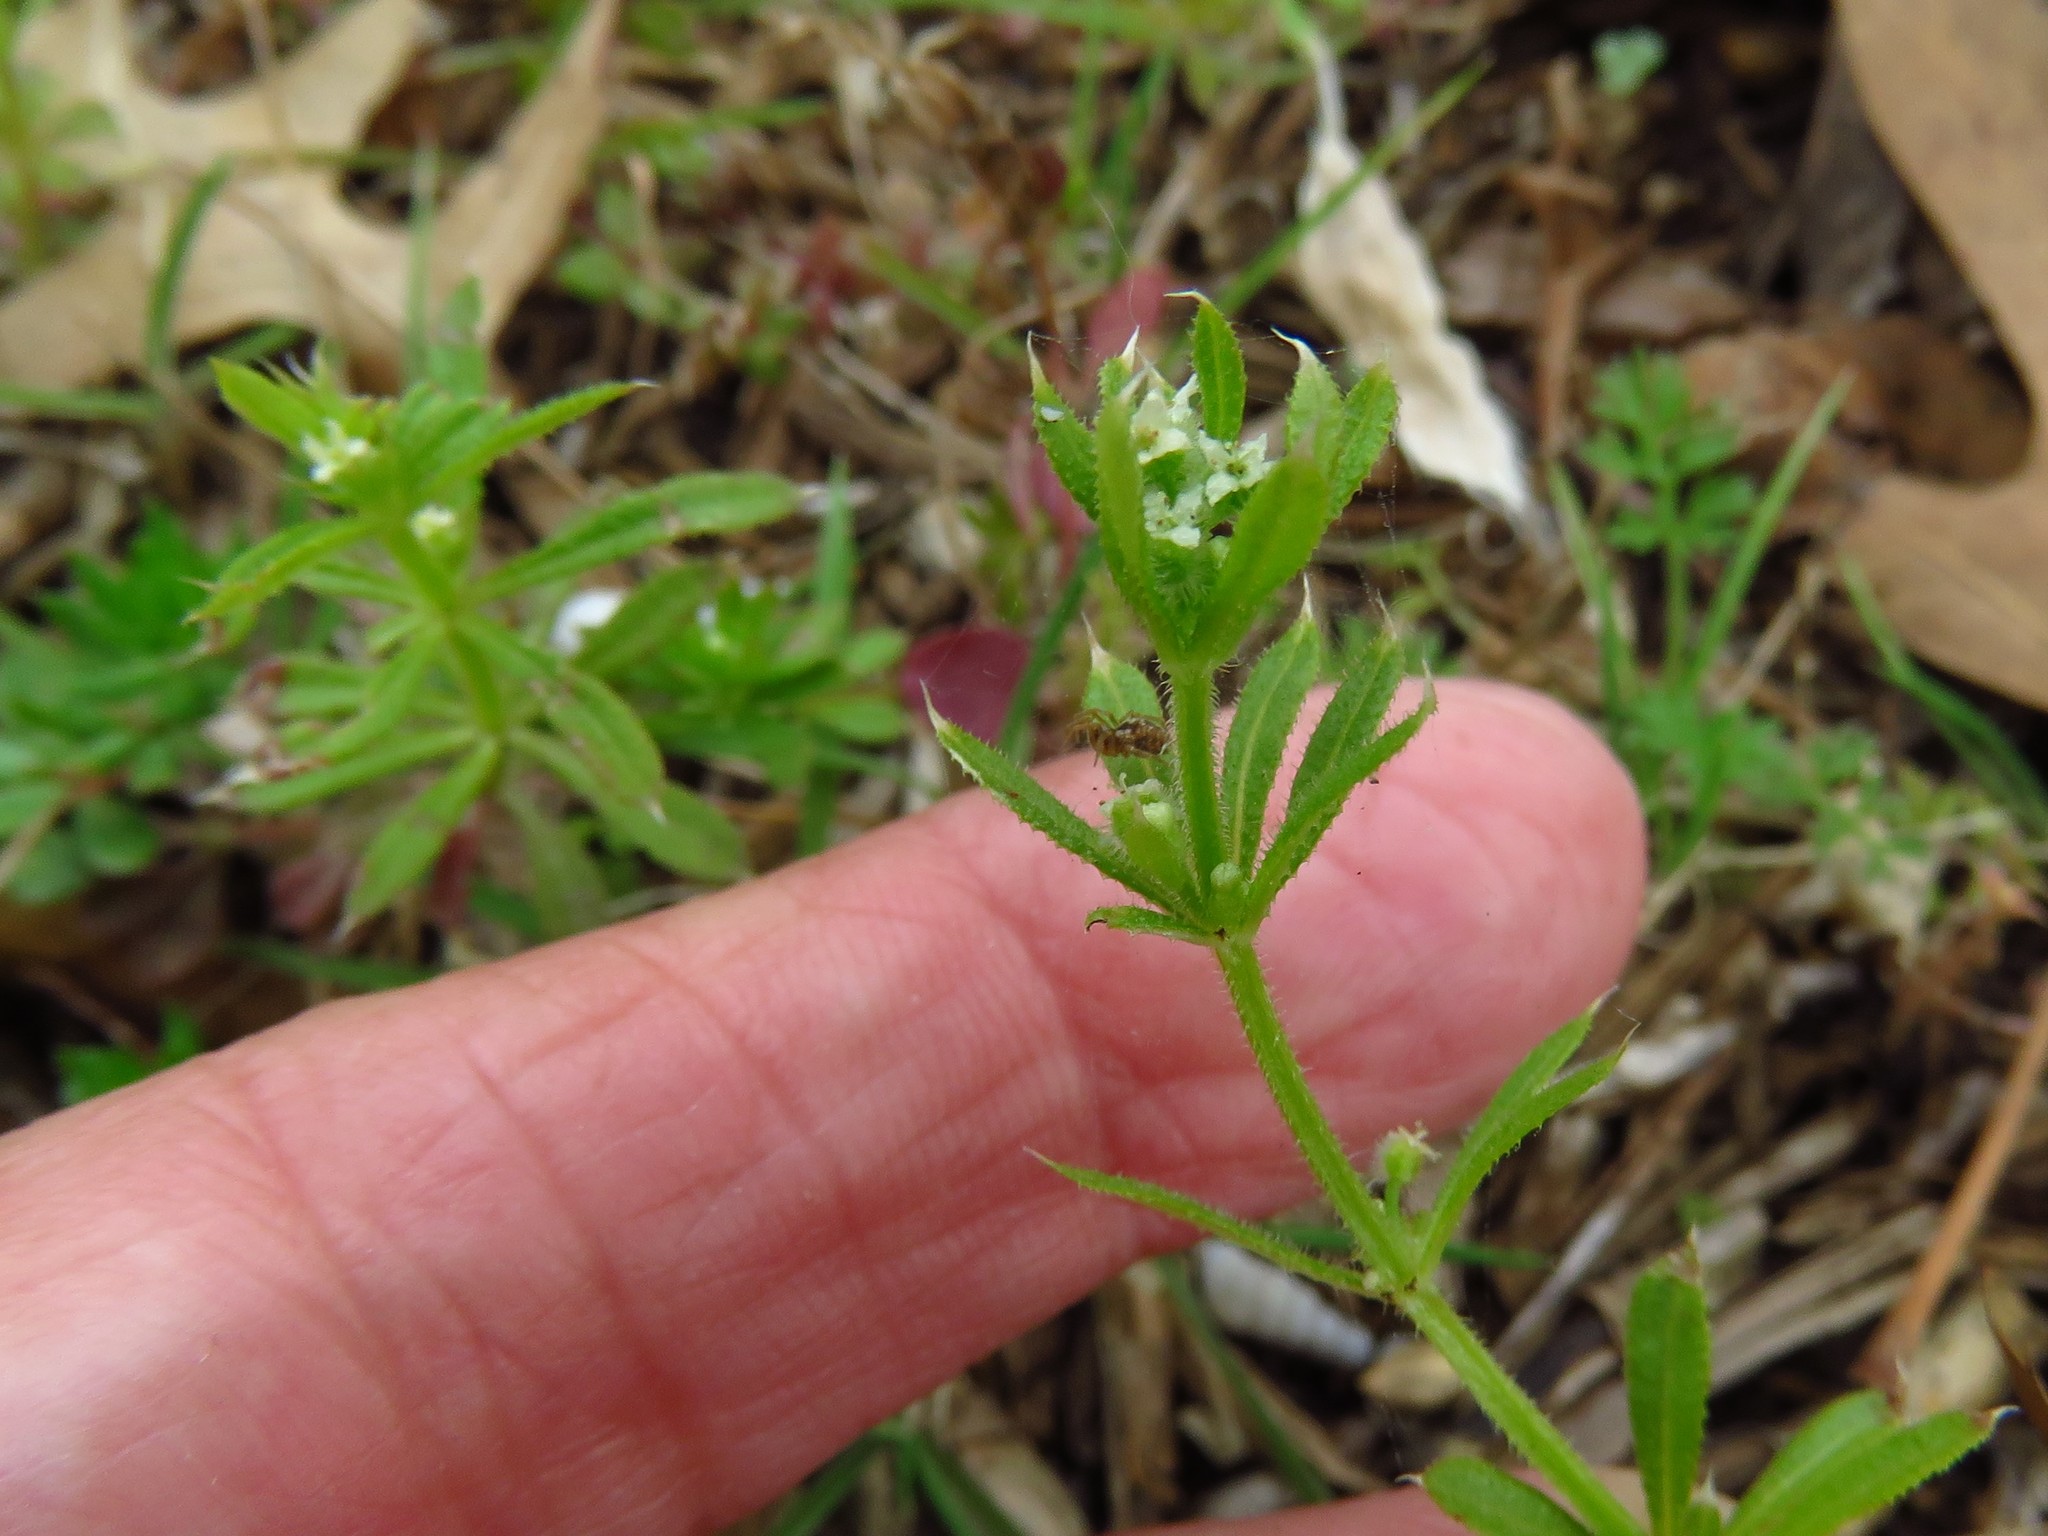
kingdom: Plantae
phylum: Tracheophyta
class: Magnoliopsida
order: Gentianales
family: Rubiaceae
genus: Galium
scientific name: Galium aparine
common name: Cleavers
